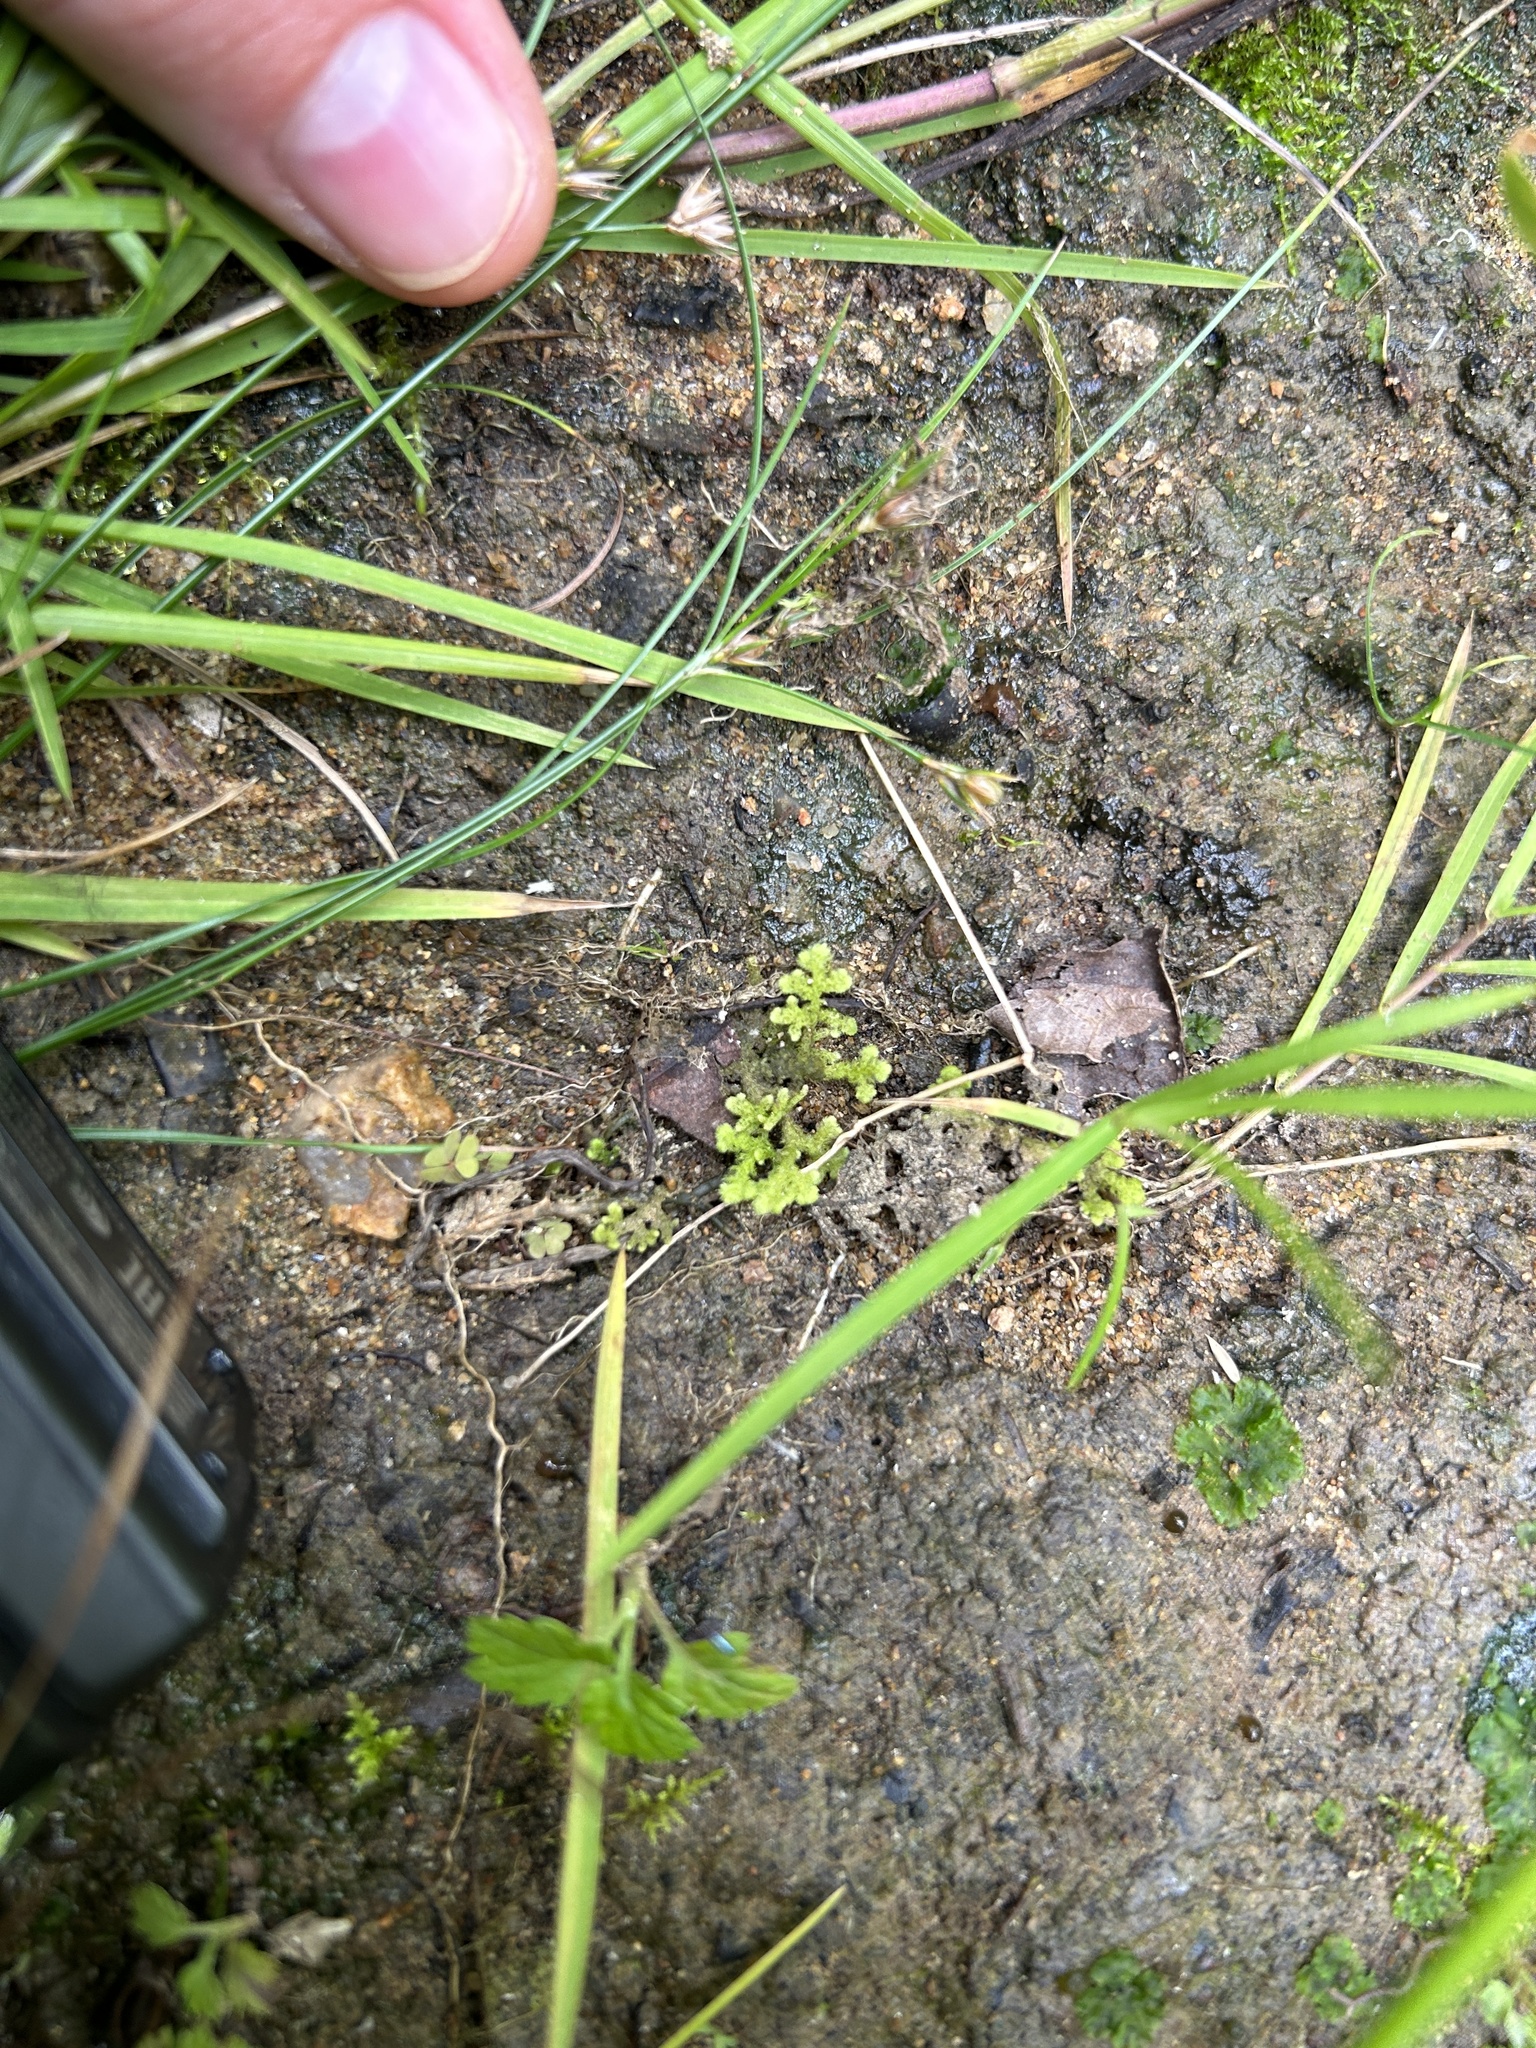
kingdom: Plantae
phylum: Marchantiophyta
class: Jungermanniopsida
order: Jungermanniales
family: Trichocoleaceae
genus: Trichocolea
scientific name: Trichocolea tomentella
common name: Woolly liverwort
